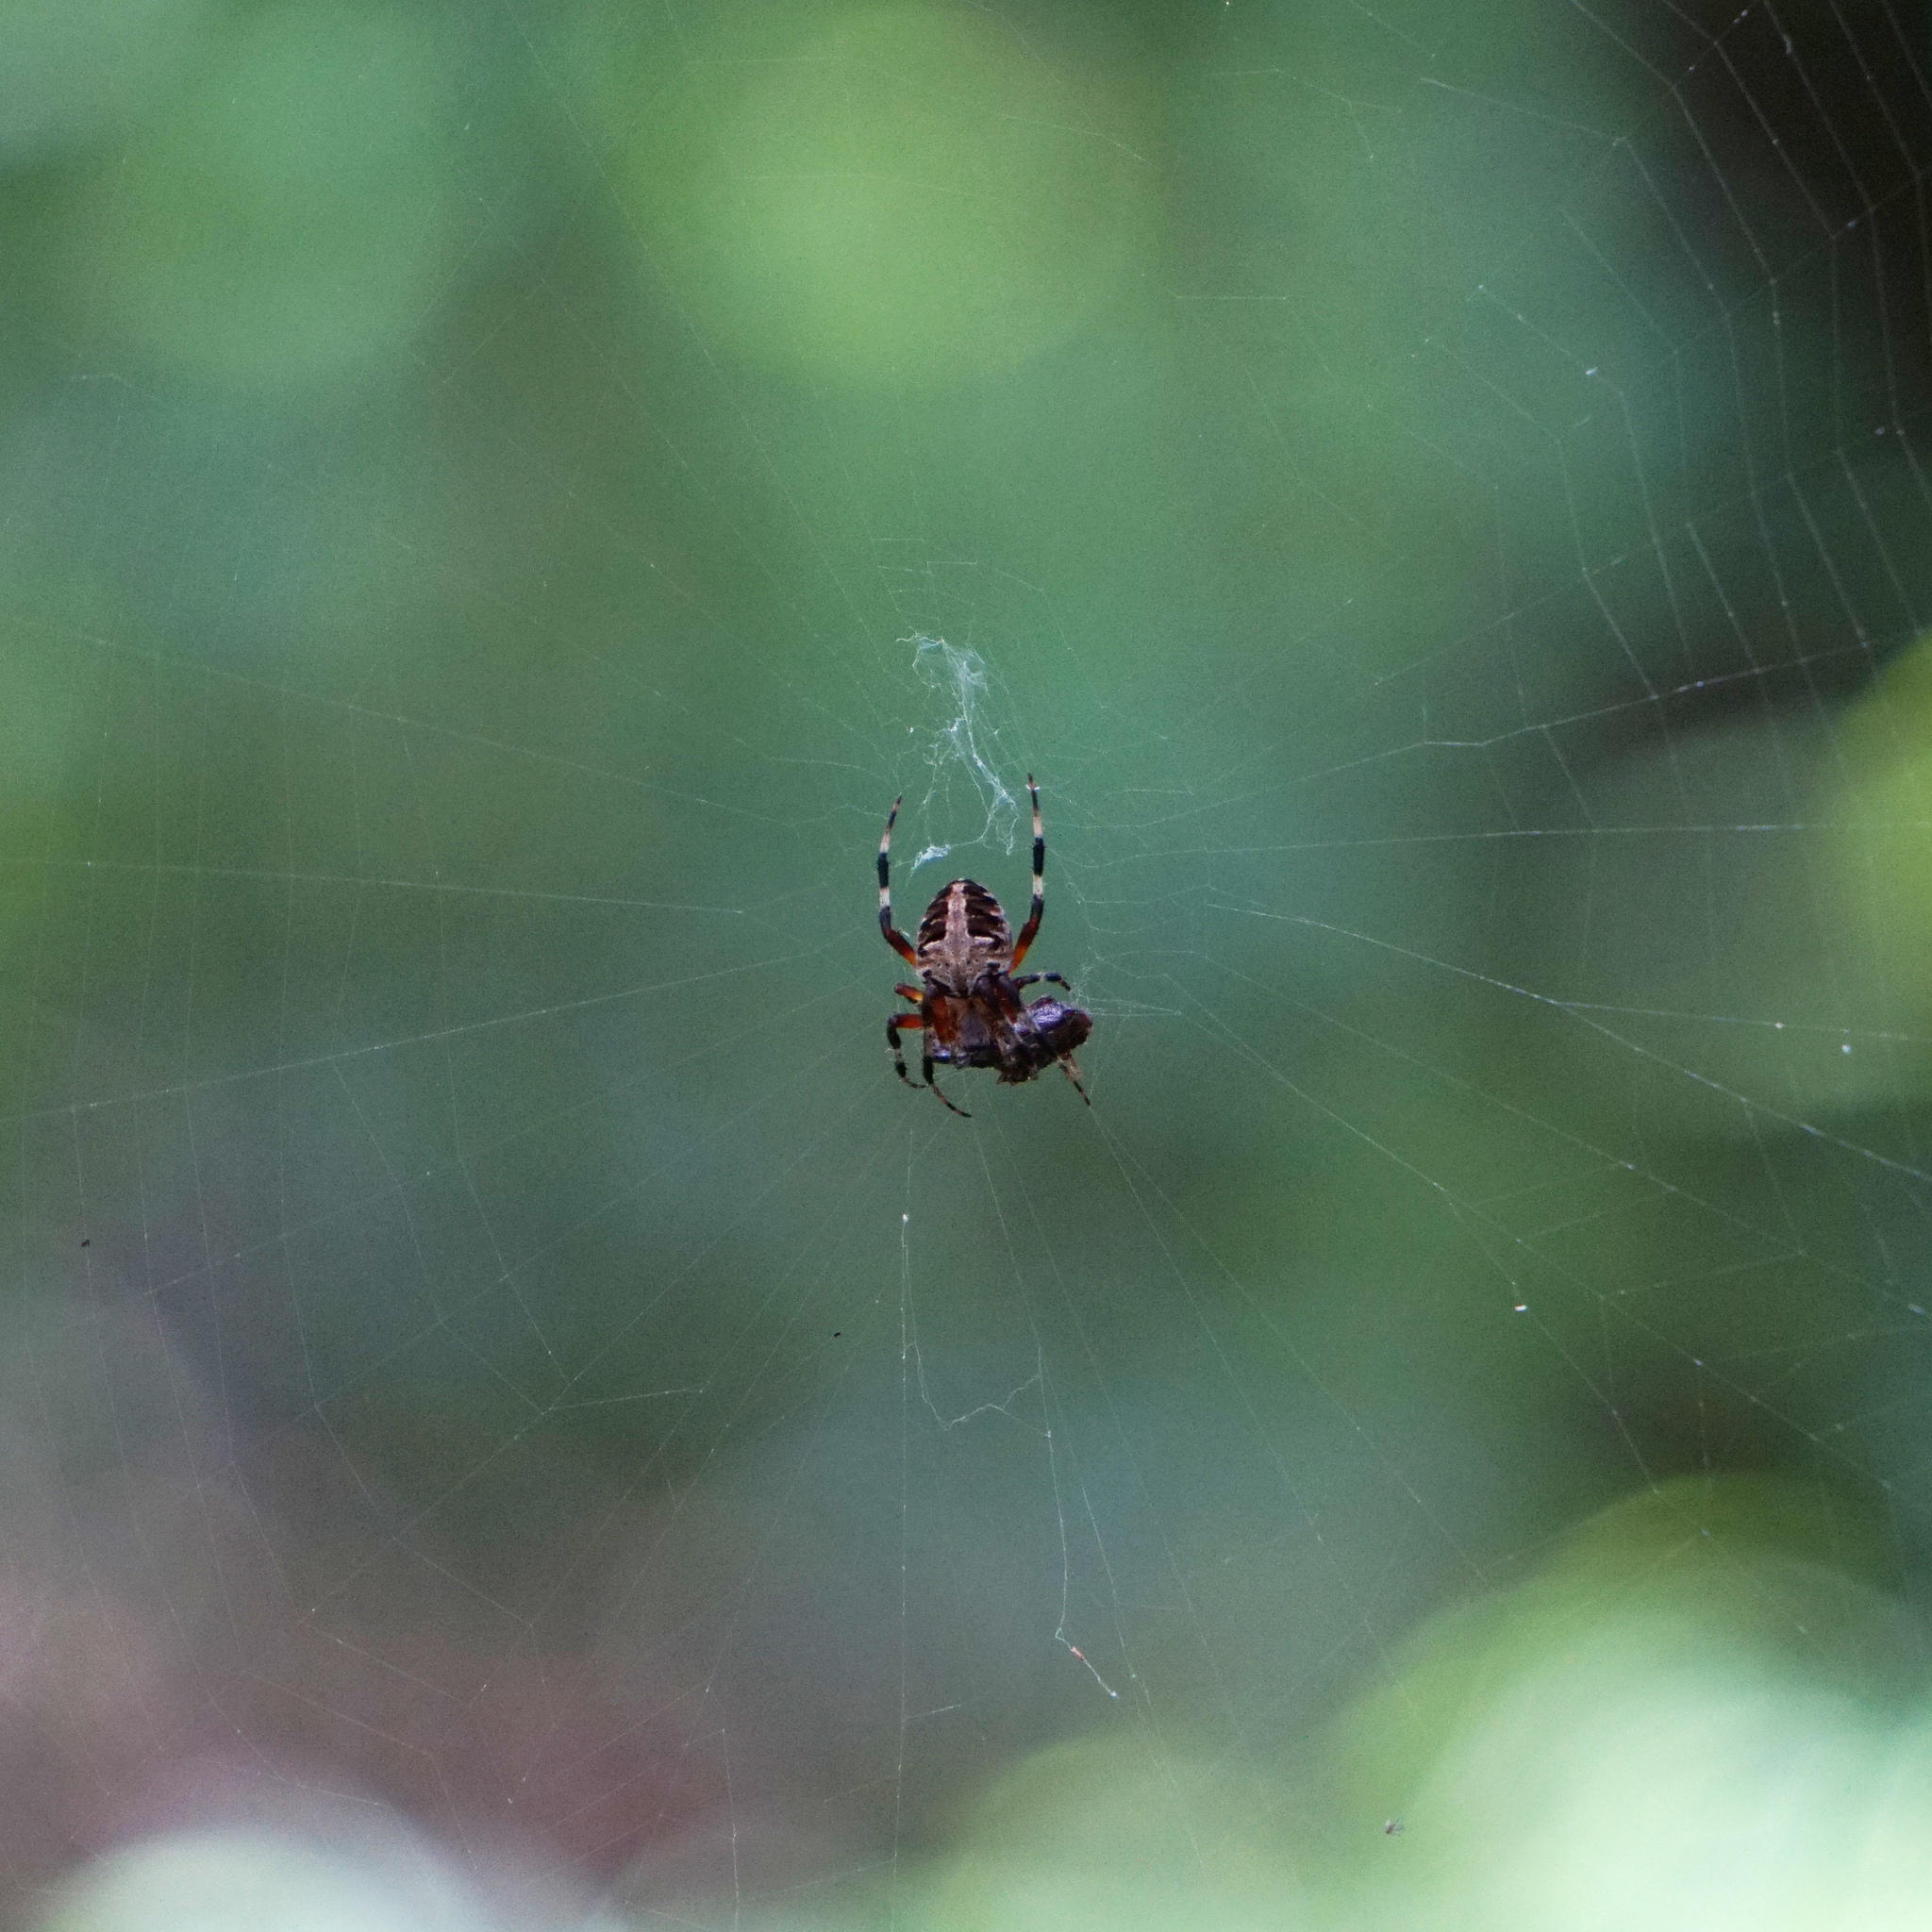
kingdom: Animalia
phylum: Arthropoda
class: Arachnida
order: Araneae
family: Araneidae
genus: Neoscona
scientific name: Neoscona domiciliorum
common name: Red-femured spotted orbweaver
